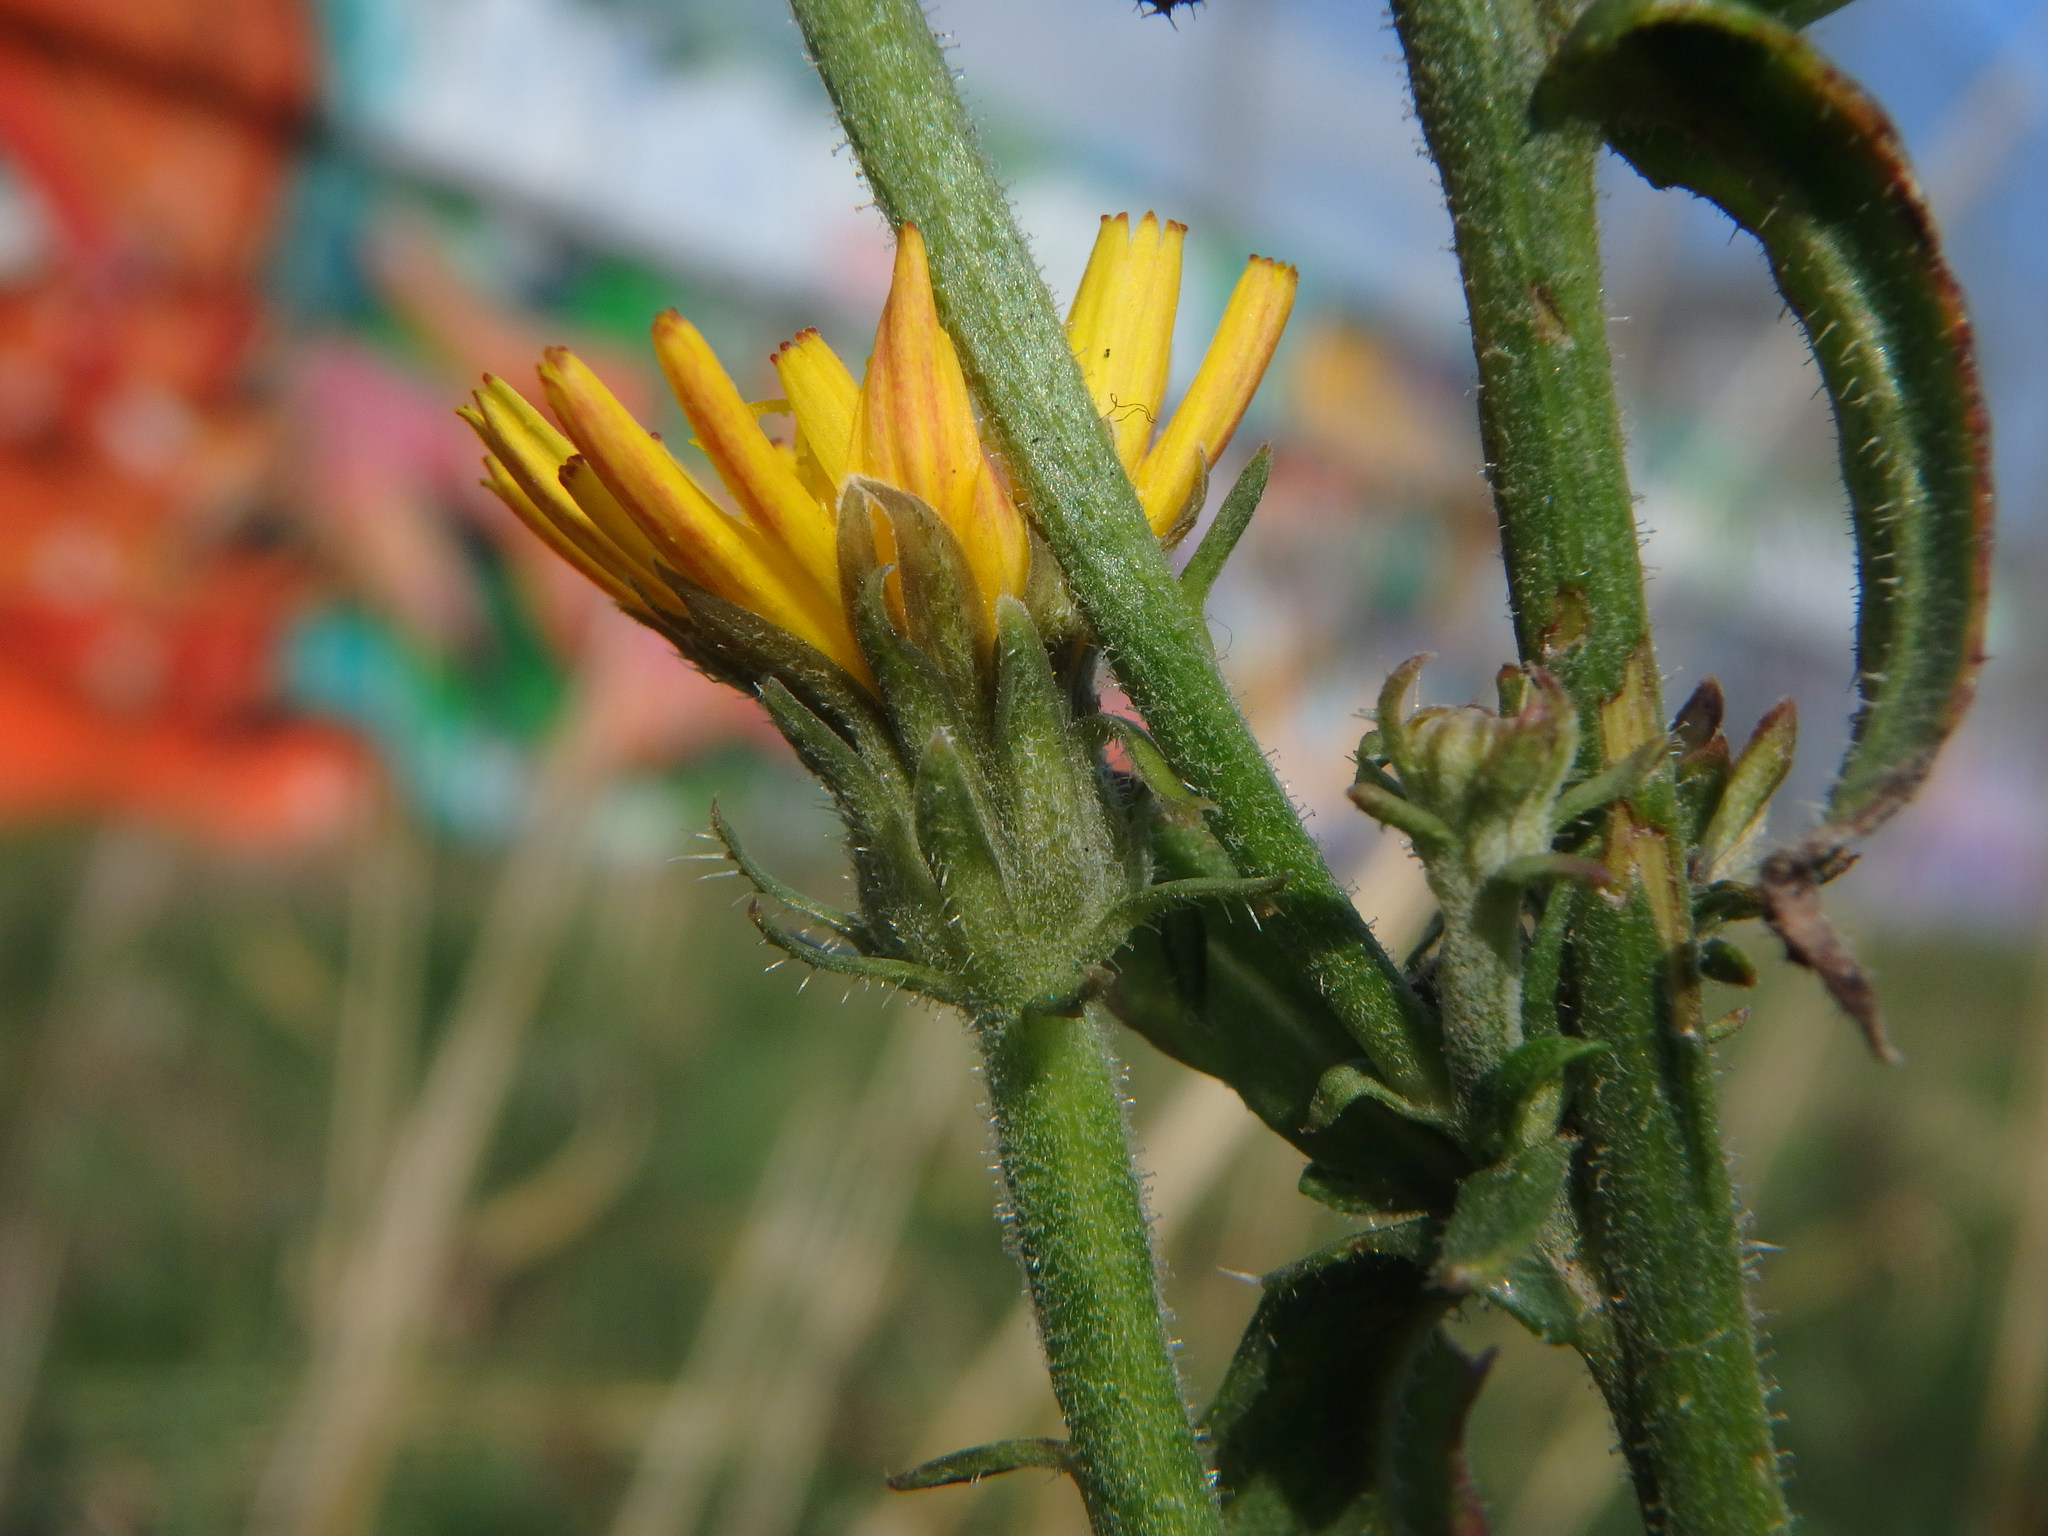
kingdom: Plantae
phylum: Tracheophyta
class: Magnoliopsida
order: Asterales
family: Asteraceae
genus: Picris
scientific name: Picris hieracioides
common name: Hawkweed oxtongue
